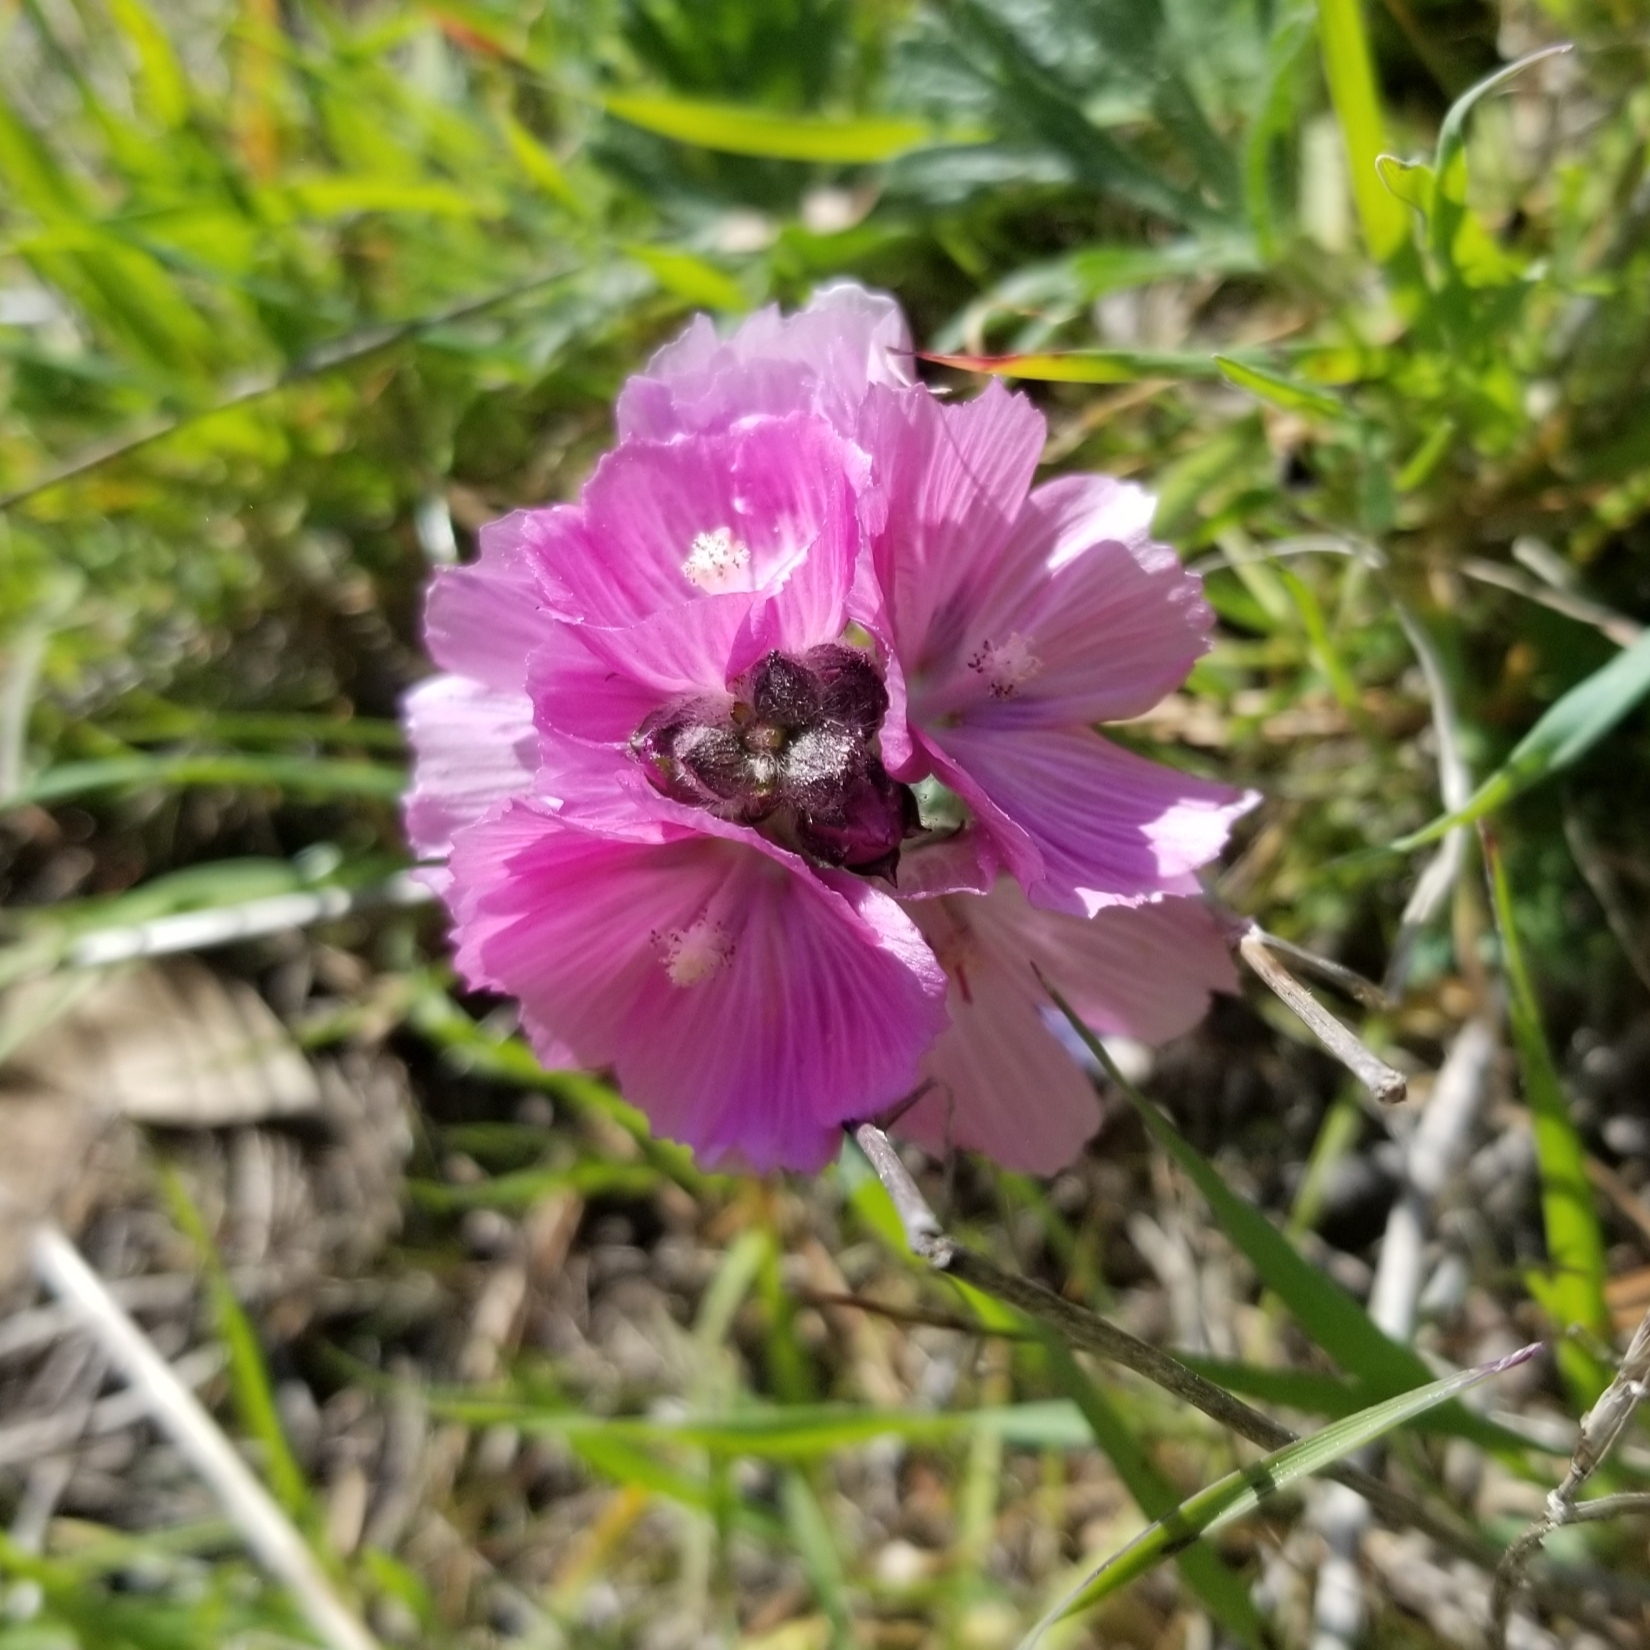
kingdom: Plantae
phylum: Tracheophyta
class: Magnoliopsida
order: Malvales
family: Malvaceae
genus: Sidalcea
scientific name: Sidalcea malviflora
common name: Greek mallow
